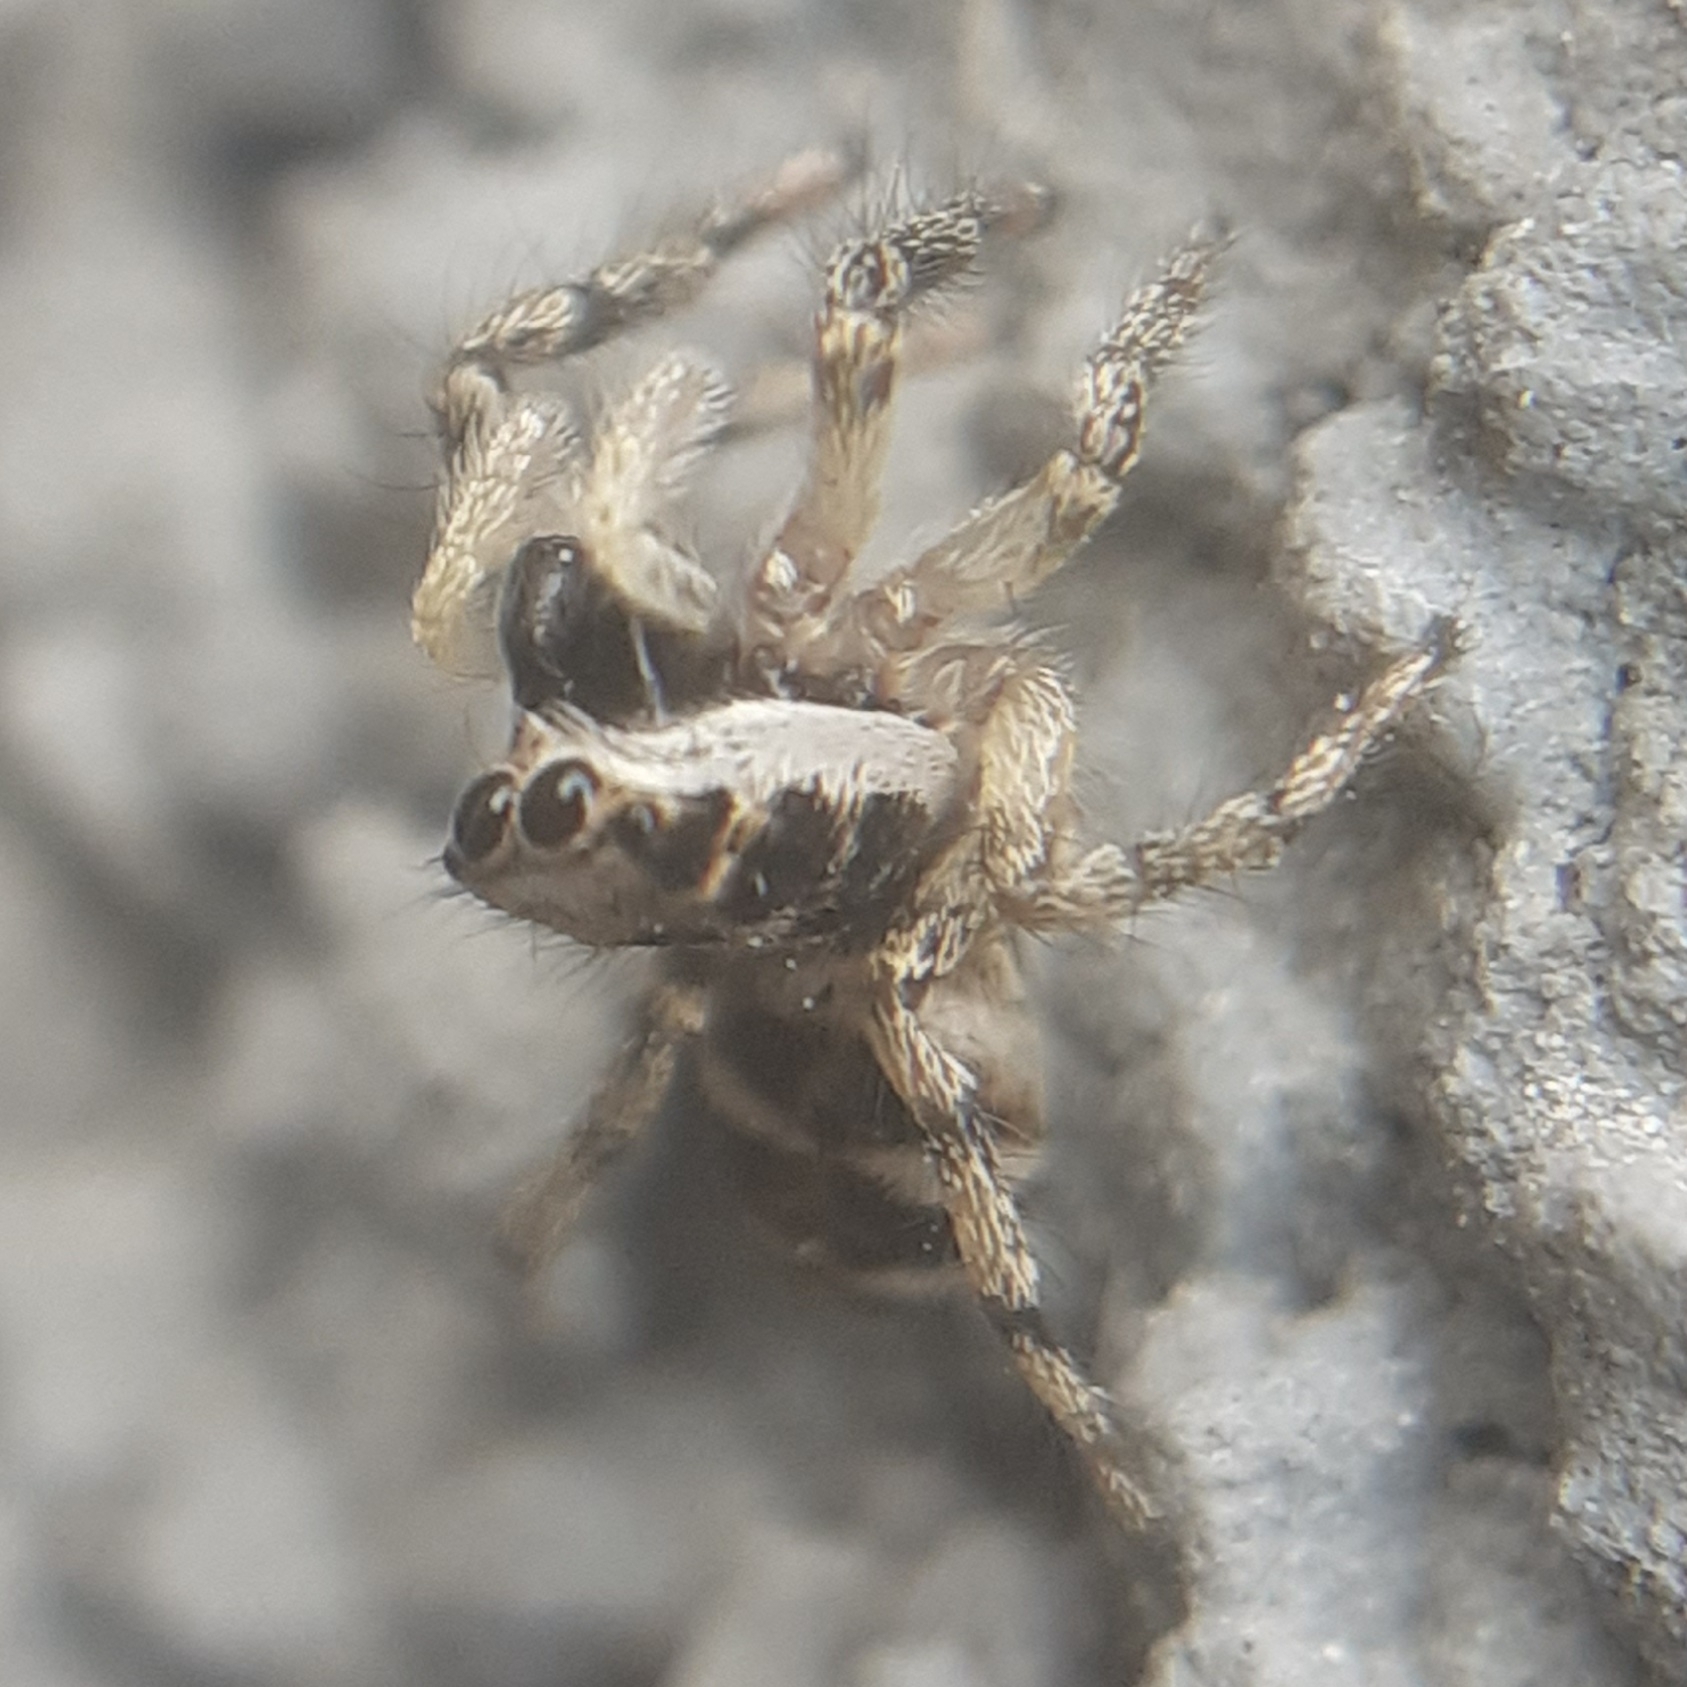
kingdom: Animalia
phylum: Arthropoda
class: Arachnida
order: Araneae
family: Salticidae
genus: Salticus
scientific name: Salticus scenicus
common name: Zebra jumper
